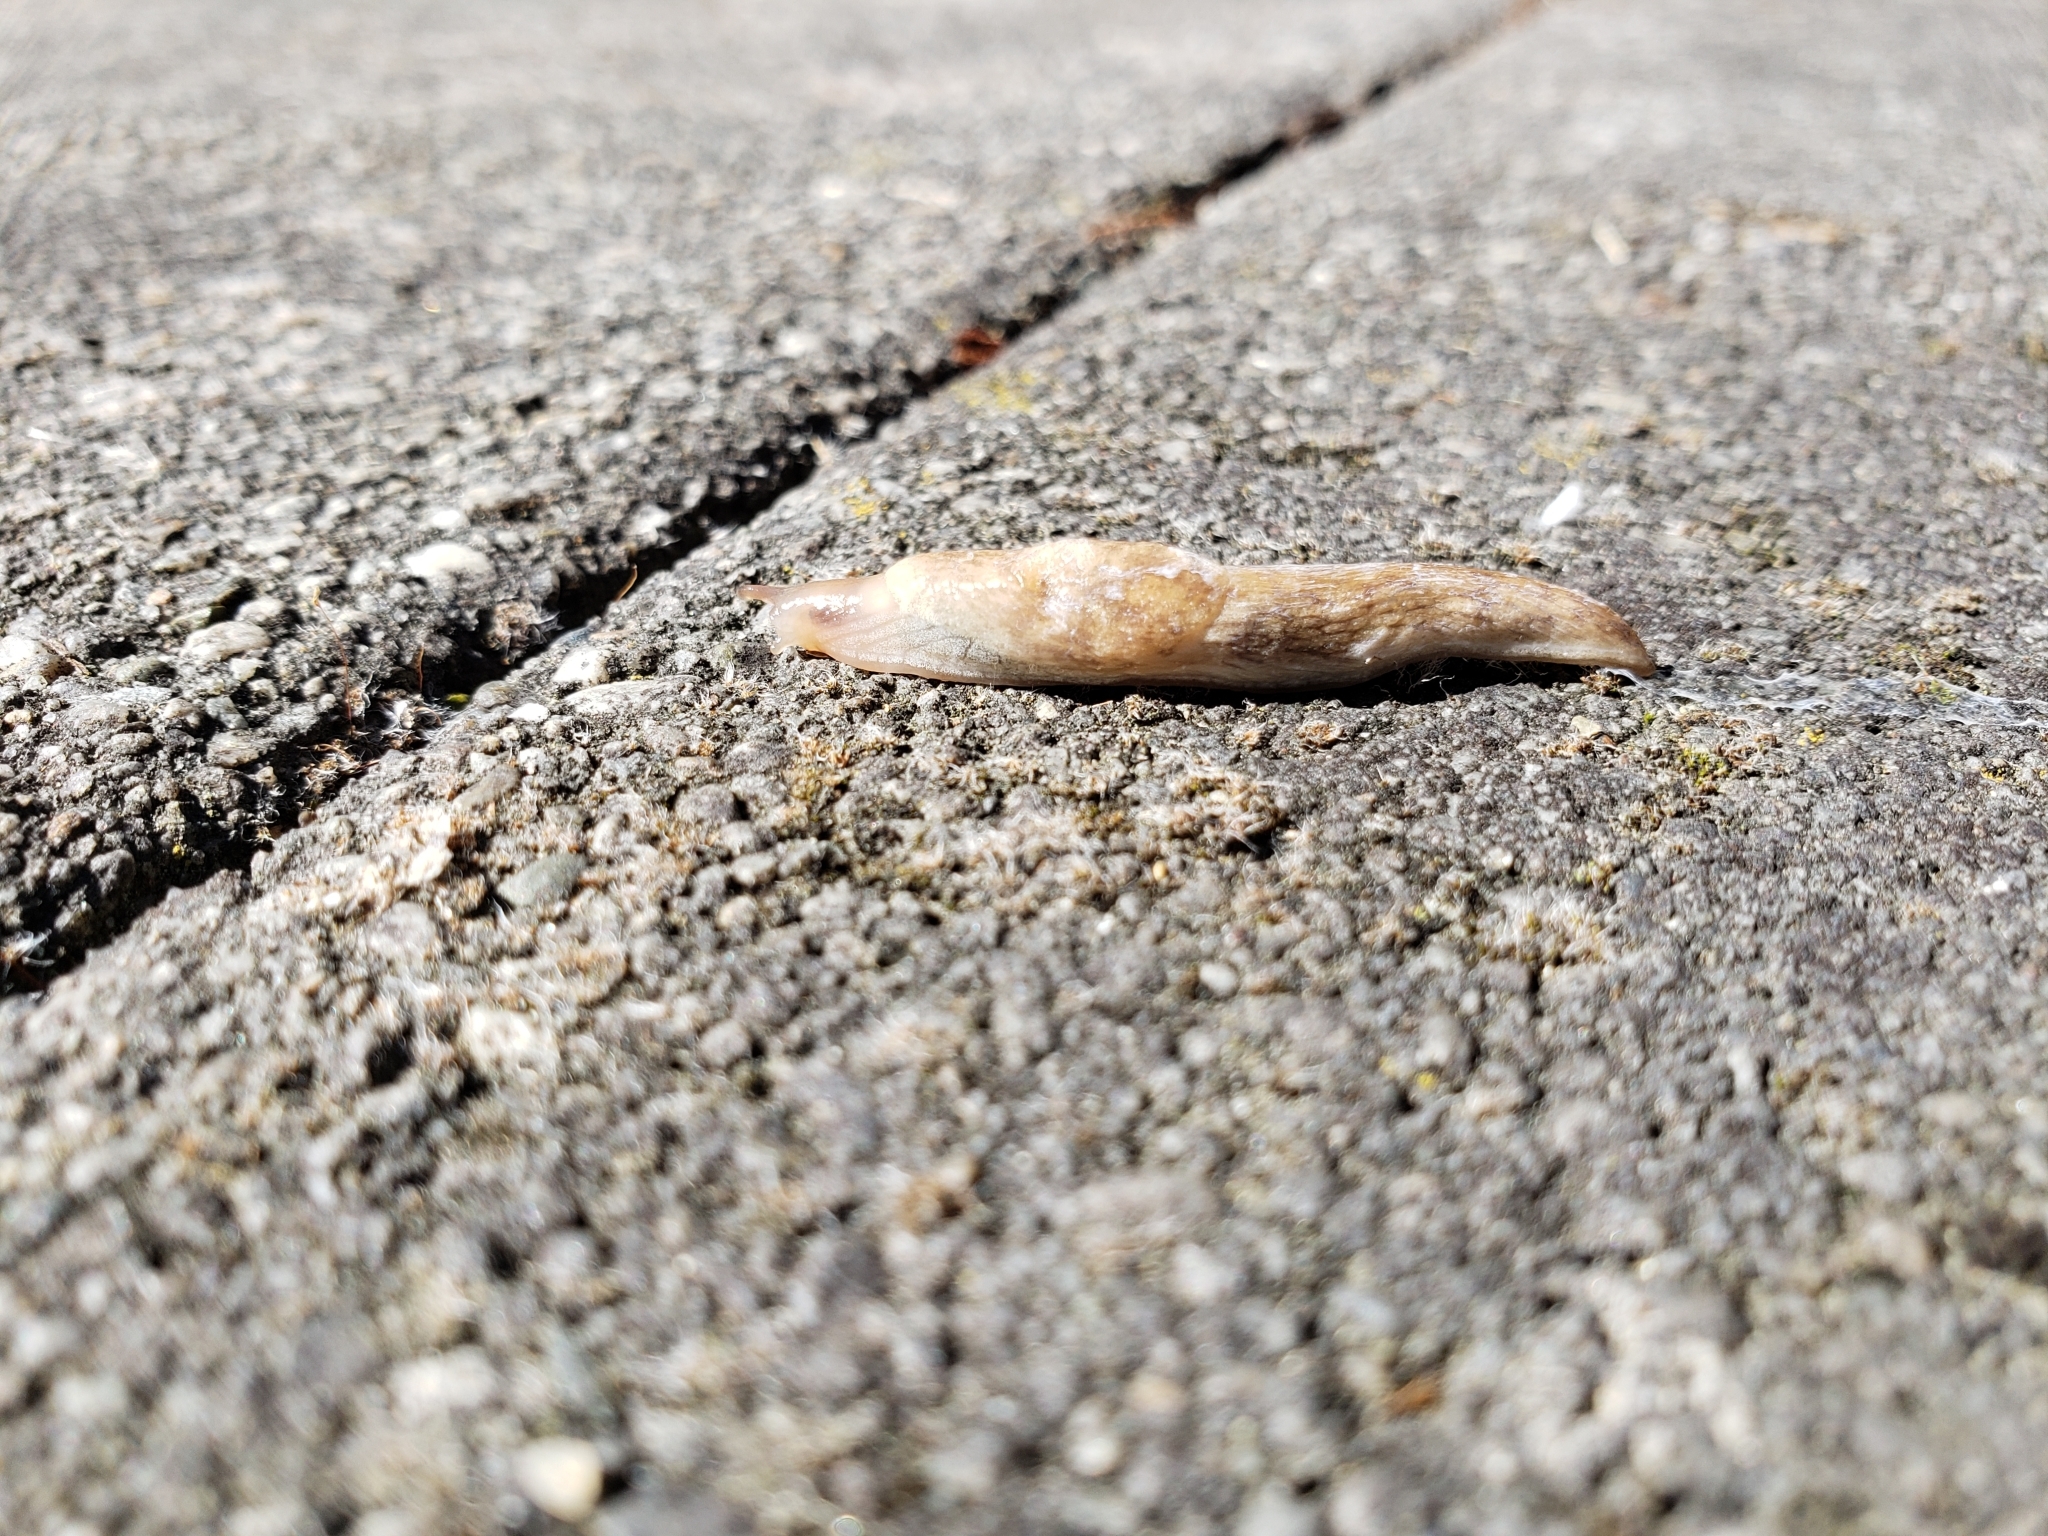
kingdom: Animalia
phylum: Mollusca
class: Gastropoda
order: Stylommatophora
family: Agriolimacidae
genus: Deroceras
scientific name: Deroceras reticulatum
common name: Gray field slug
